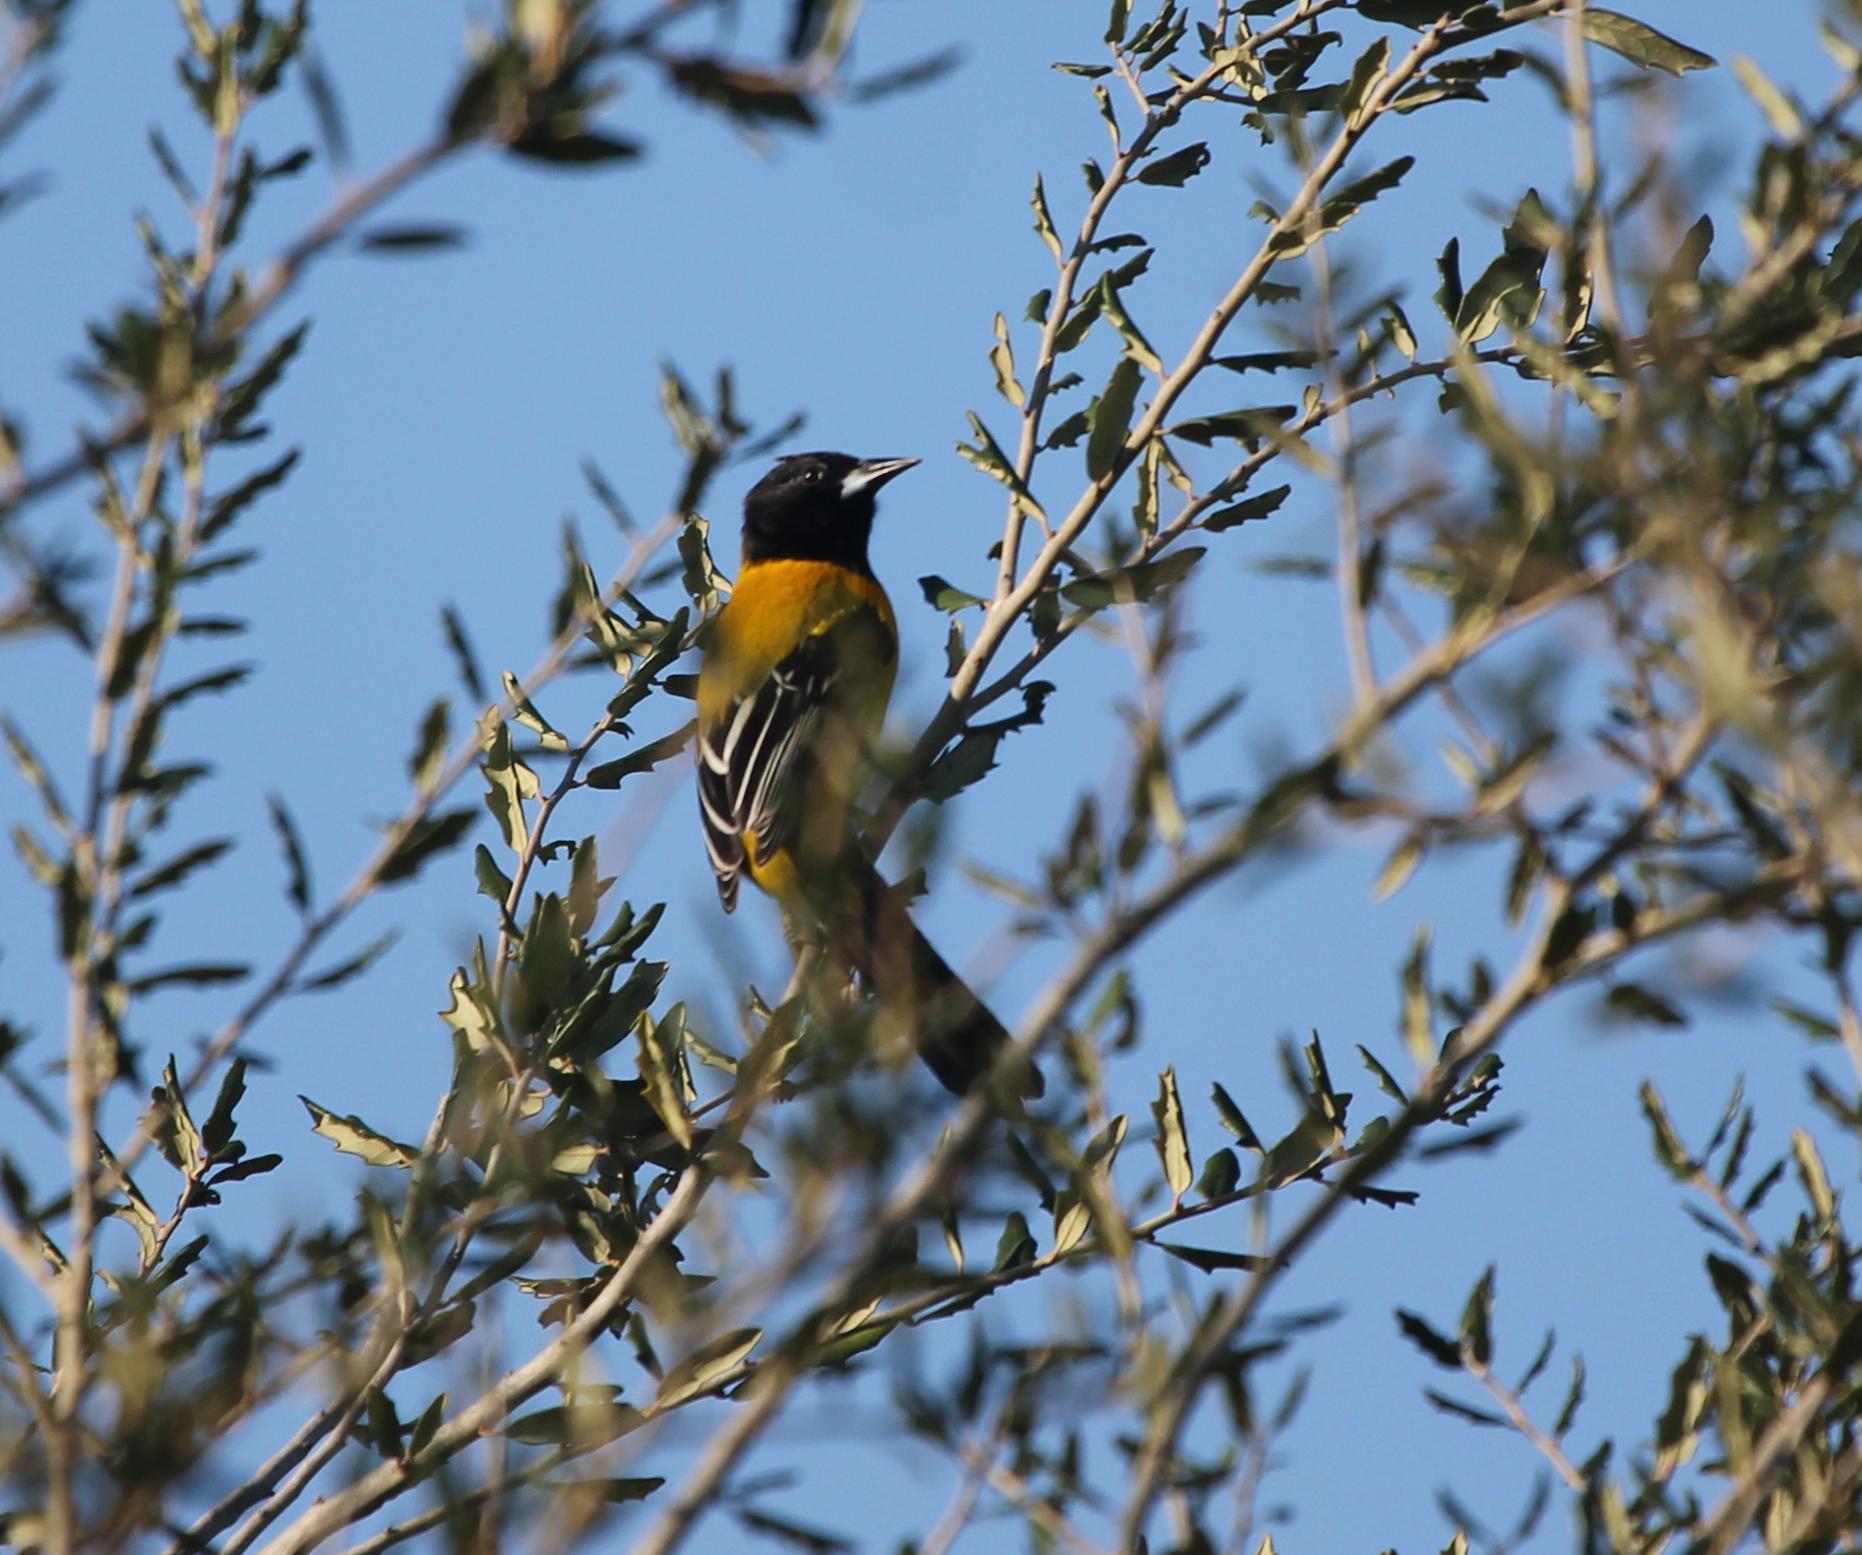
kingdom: Animalia
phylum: Chordata
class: Aves
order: Passeriformes
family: Icteridae
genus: Icterus
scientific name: Icterus graduacauda
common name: Audubon's oriole
